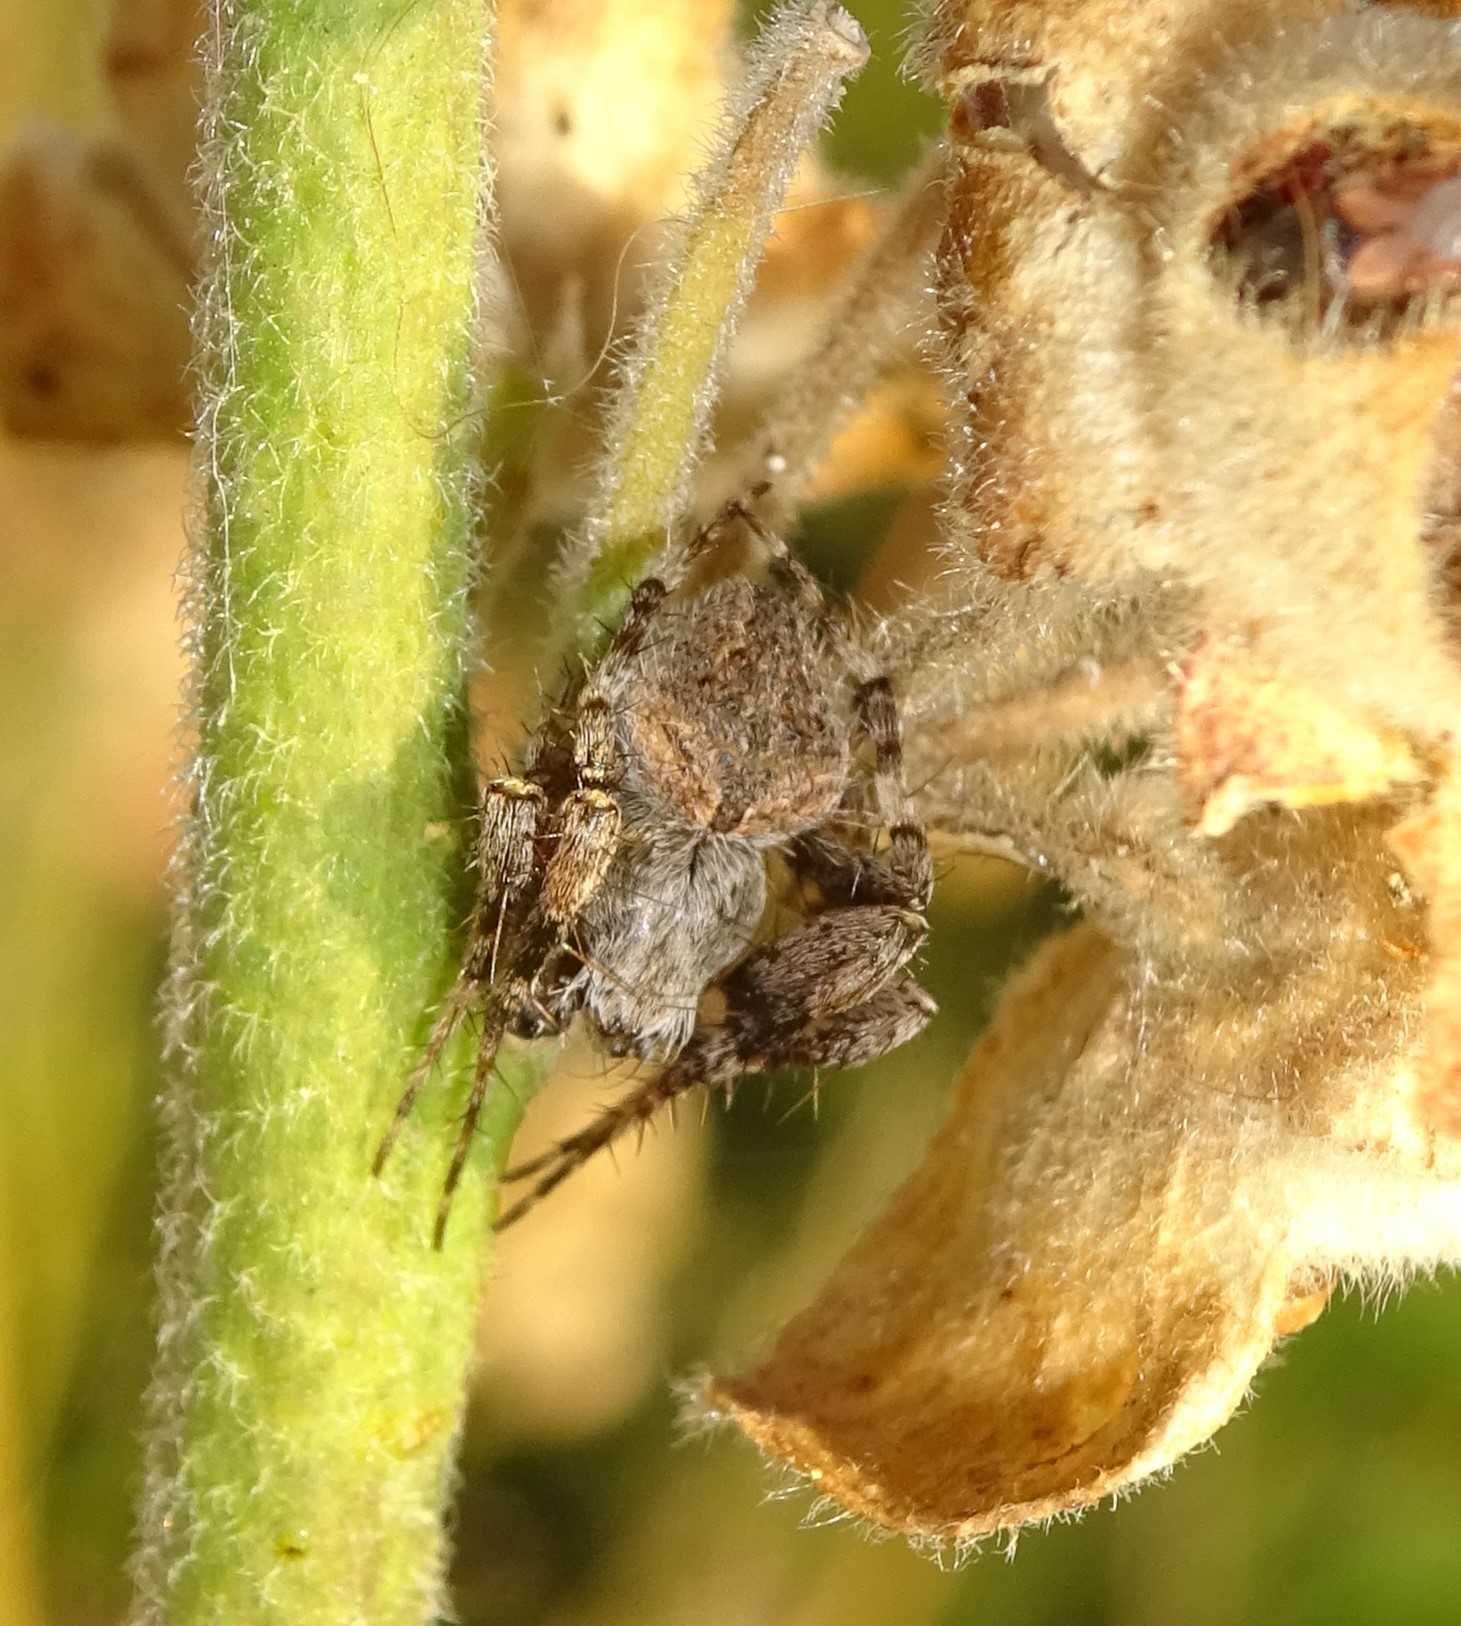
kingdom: Animalia
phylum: Arthropoda
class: Arachnida
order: Araneae
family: Araneidae
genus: Neoscona
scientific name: Neoscona subfusca
